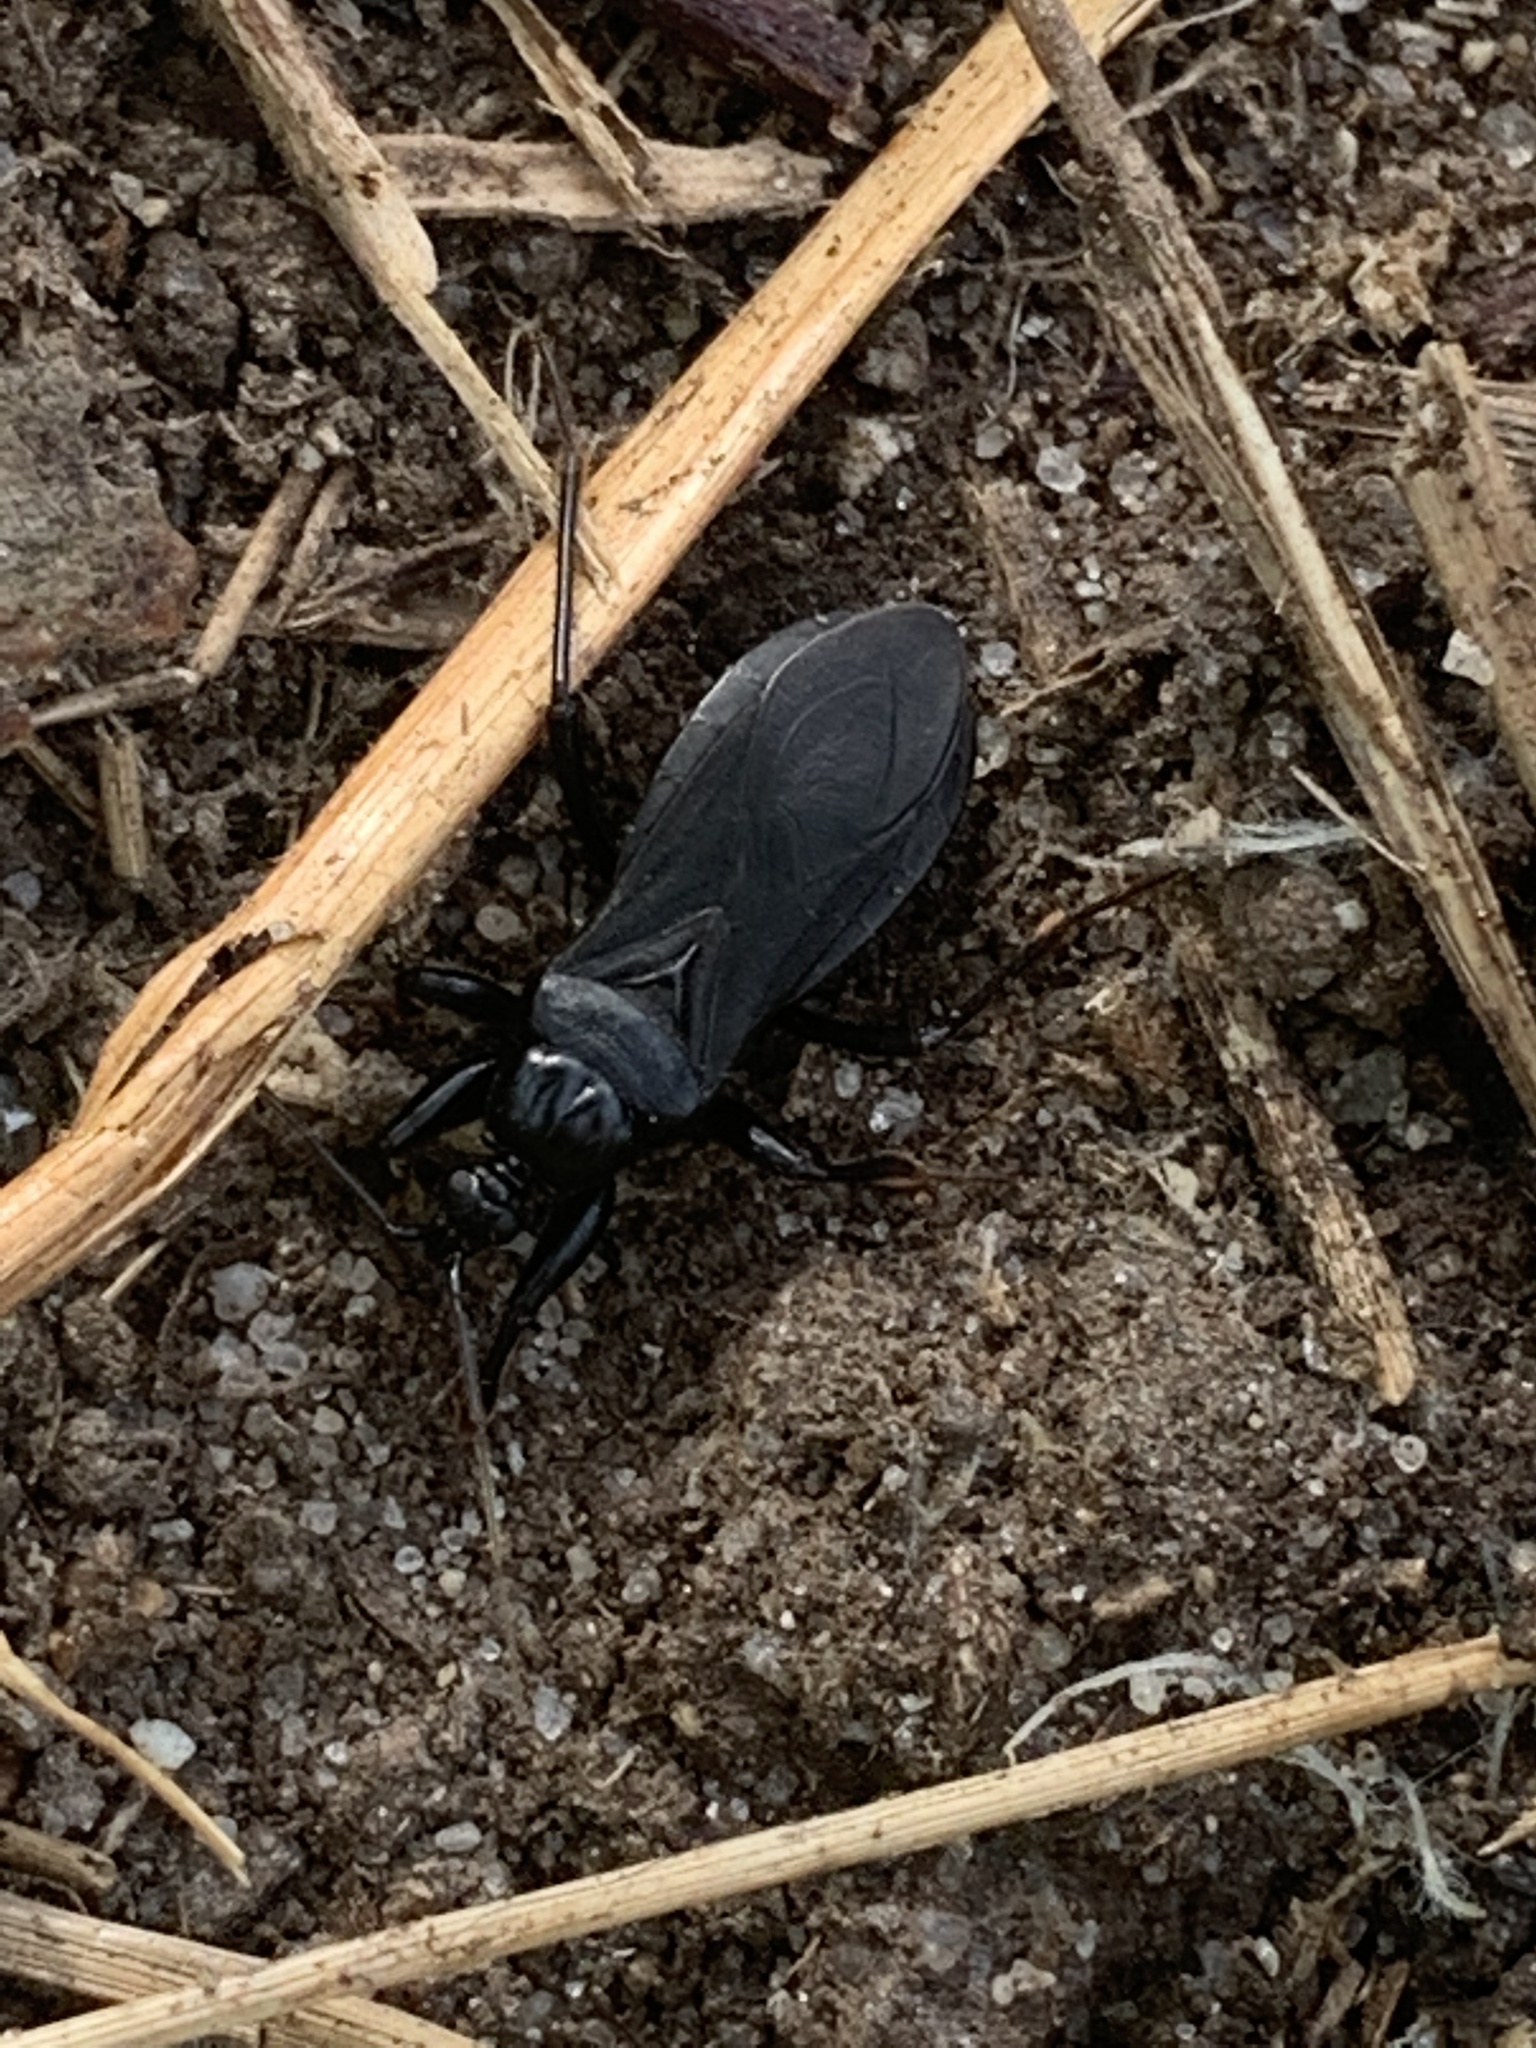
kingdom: Animalia
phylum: Arthropoda
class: Insecta
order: Hemiptera
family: Reduviidae
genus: Melanolestes
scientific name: Melanolestes picipes
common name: Assassin bug
